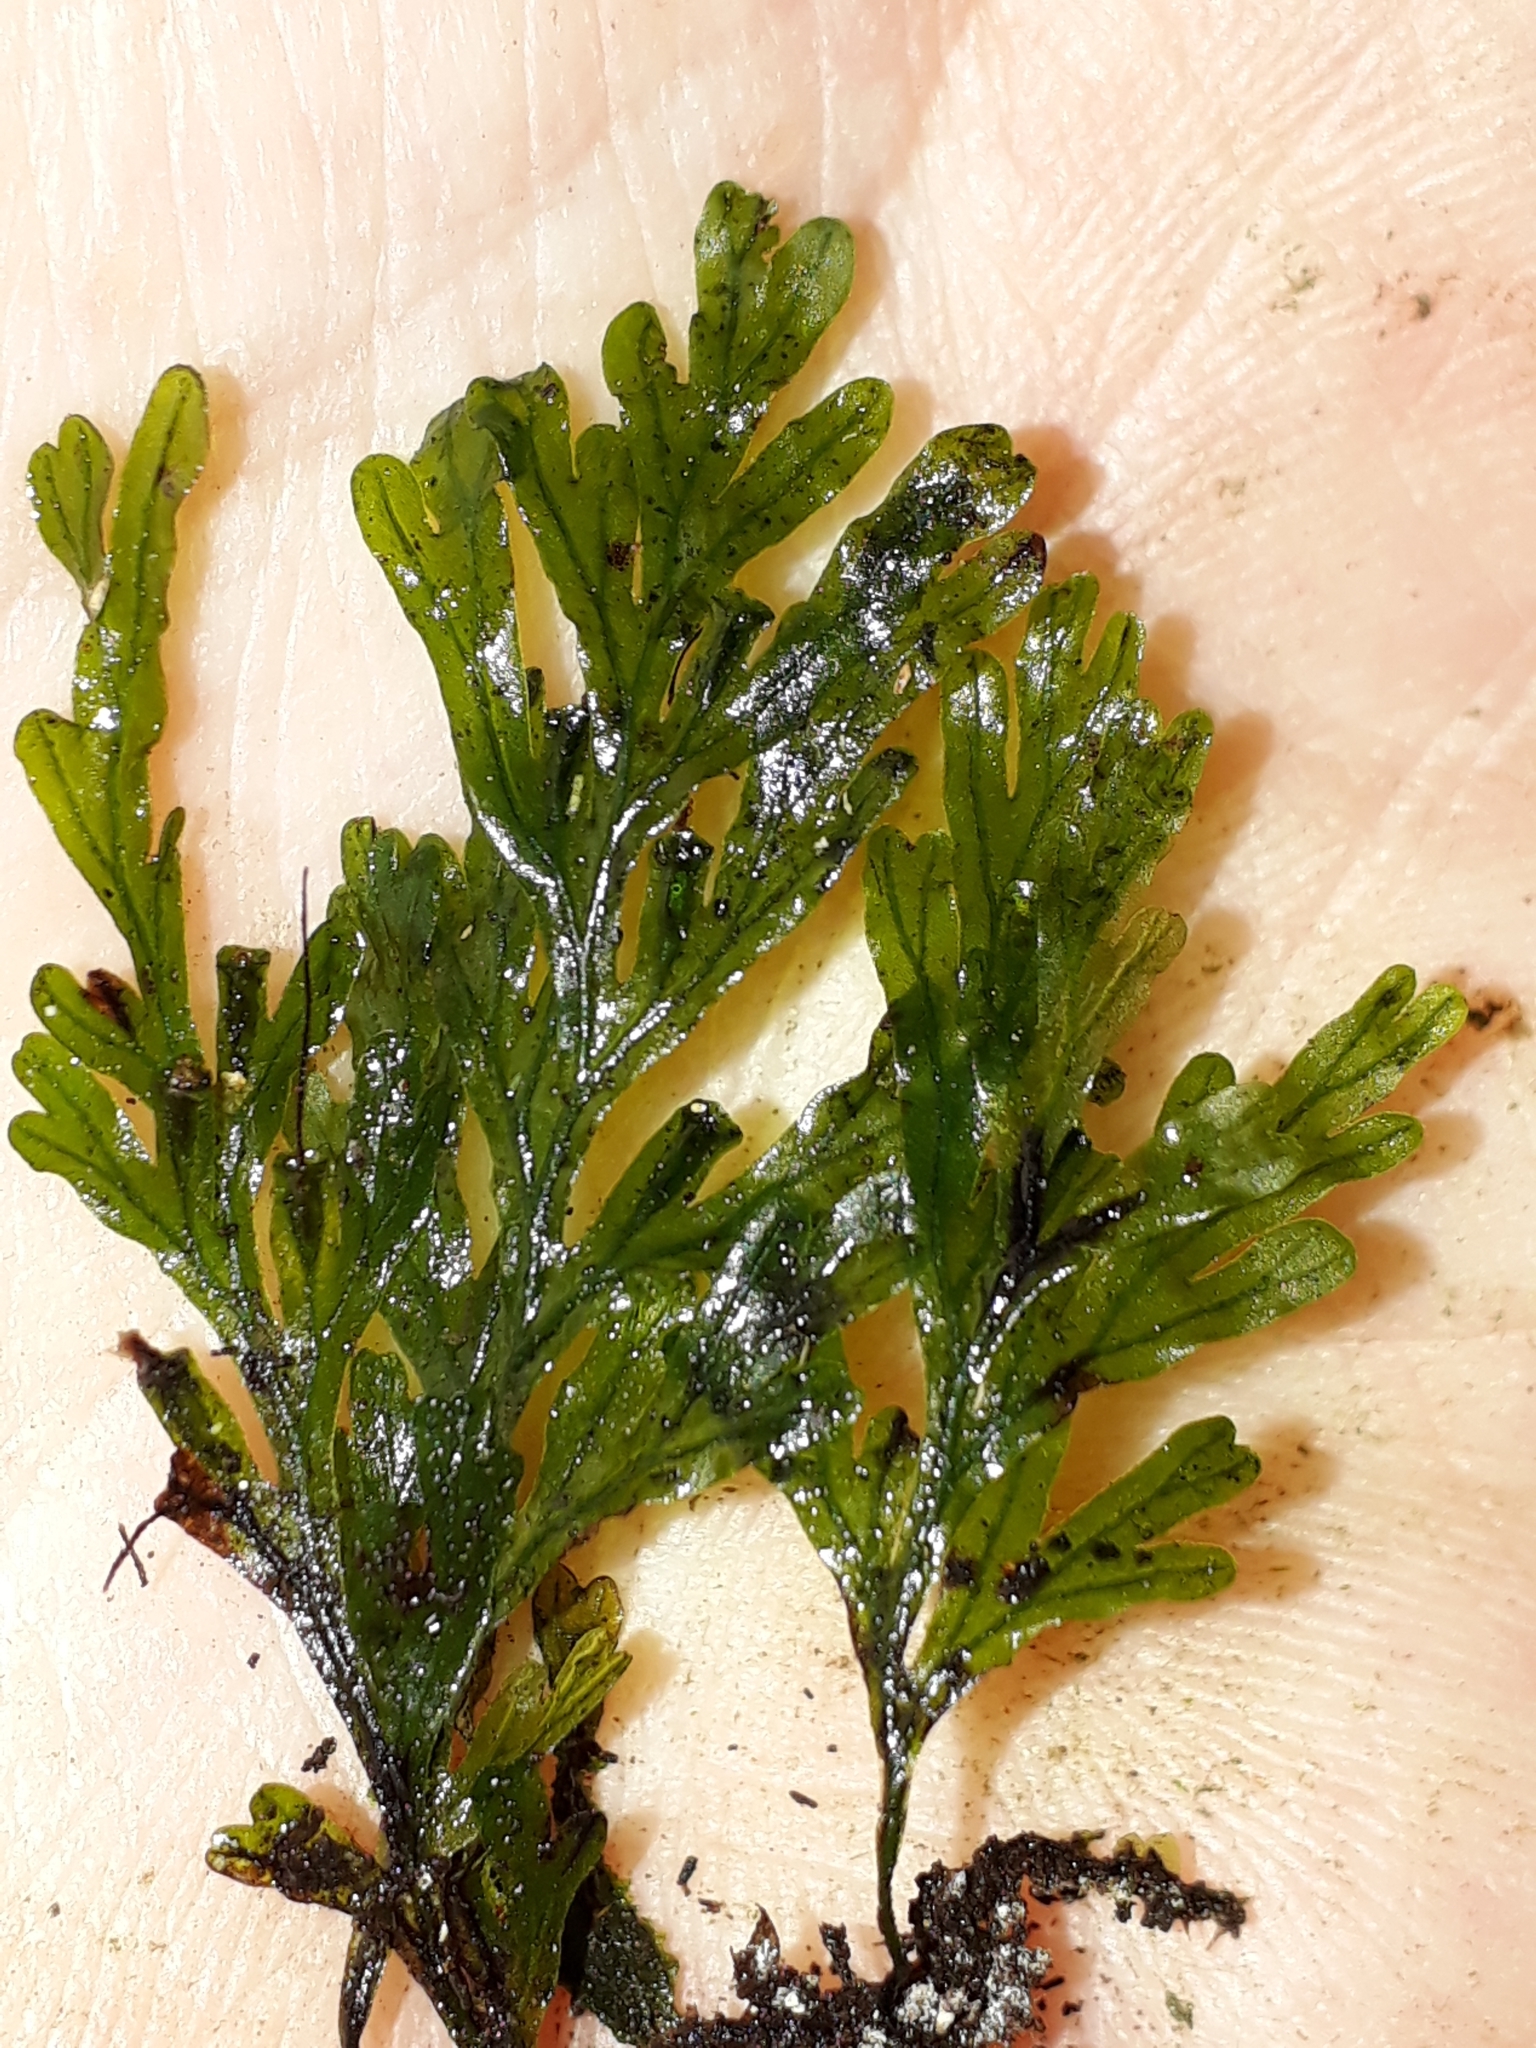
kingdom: Plantae
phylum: Tracheophyta
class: Polypodiopsida
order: Hymenophyllales
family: Hymenophyllaceae
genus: Polyphlebium
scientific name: Polyphlebium endlicherianum
